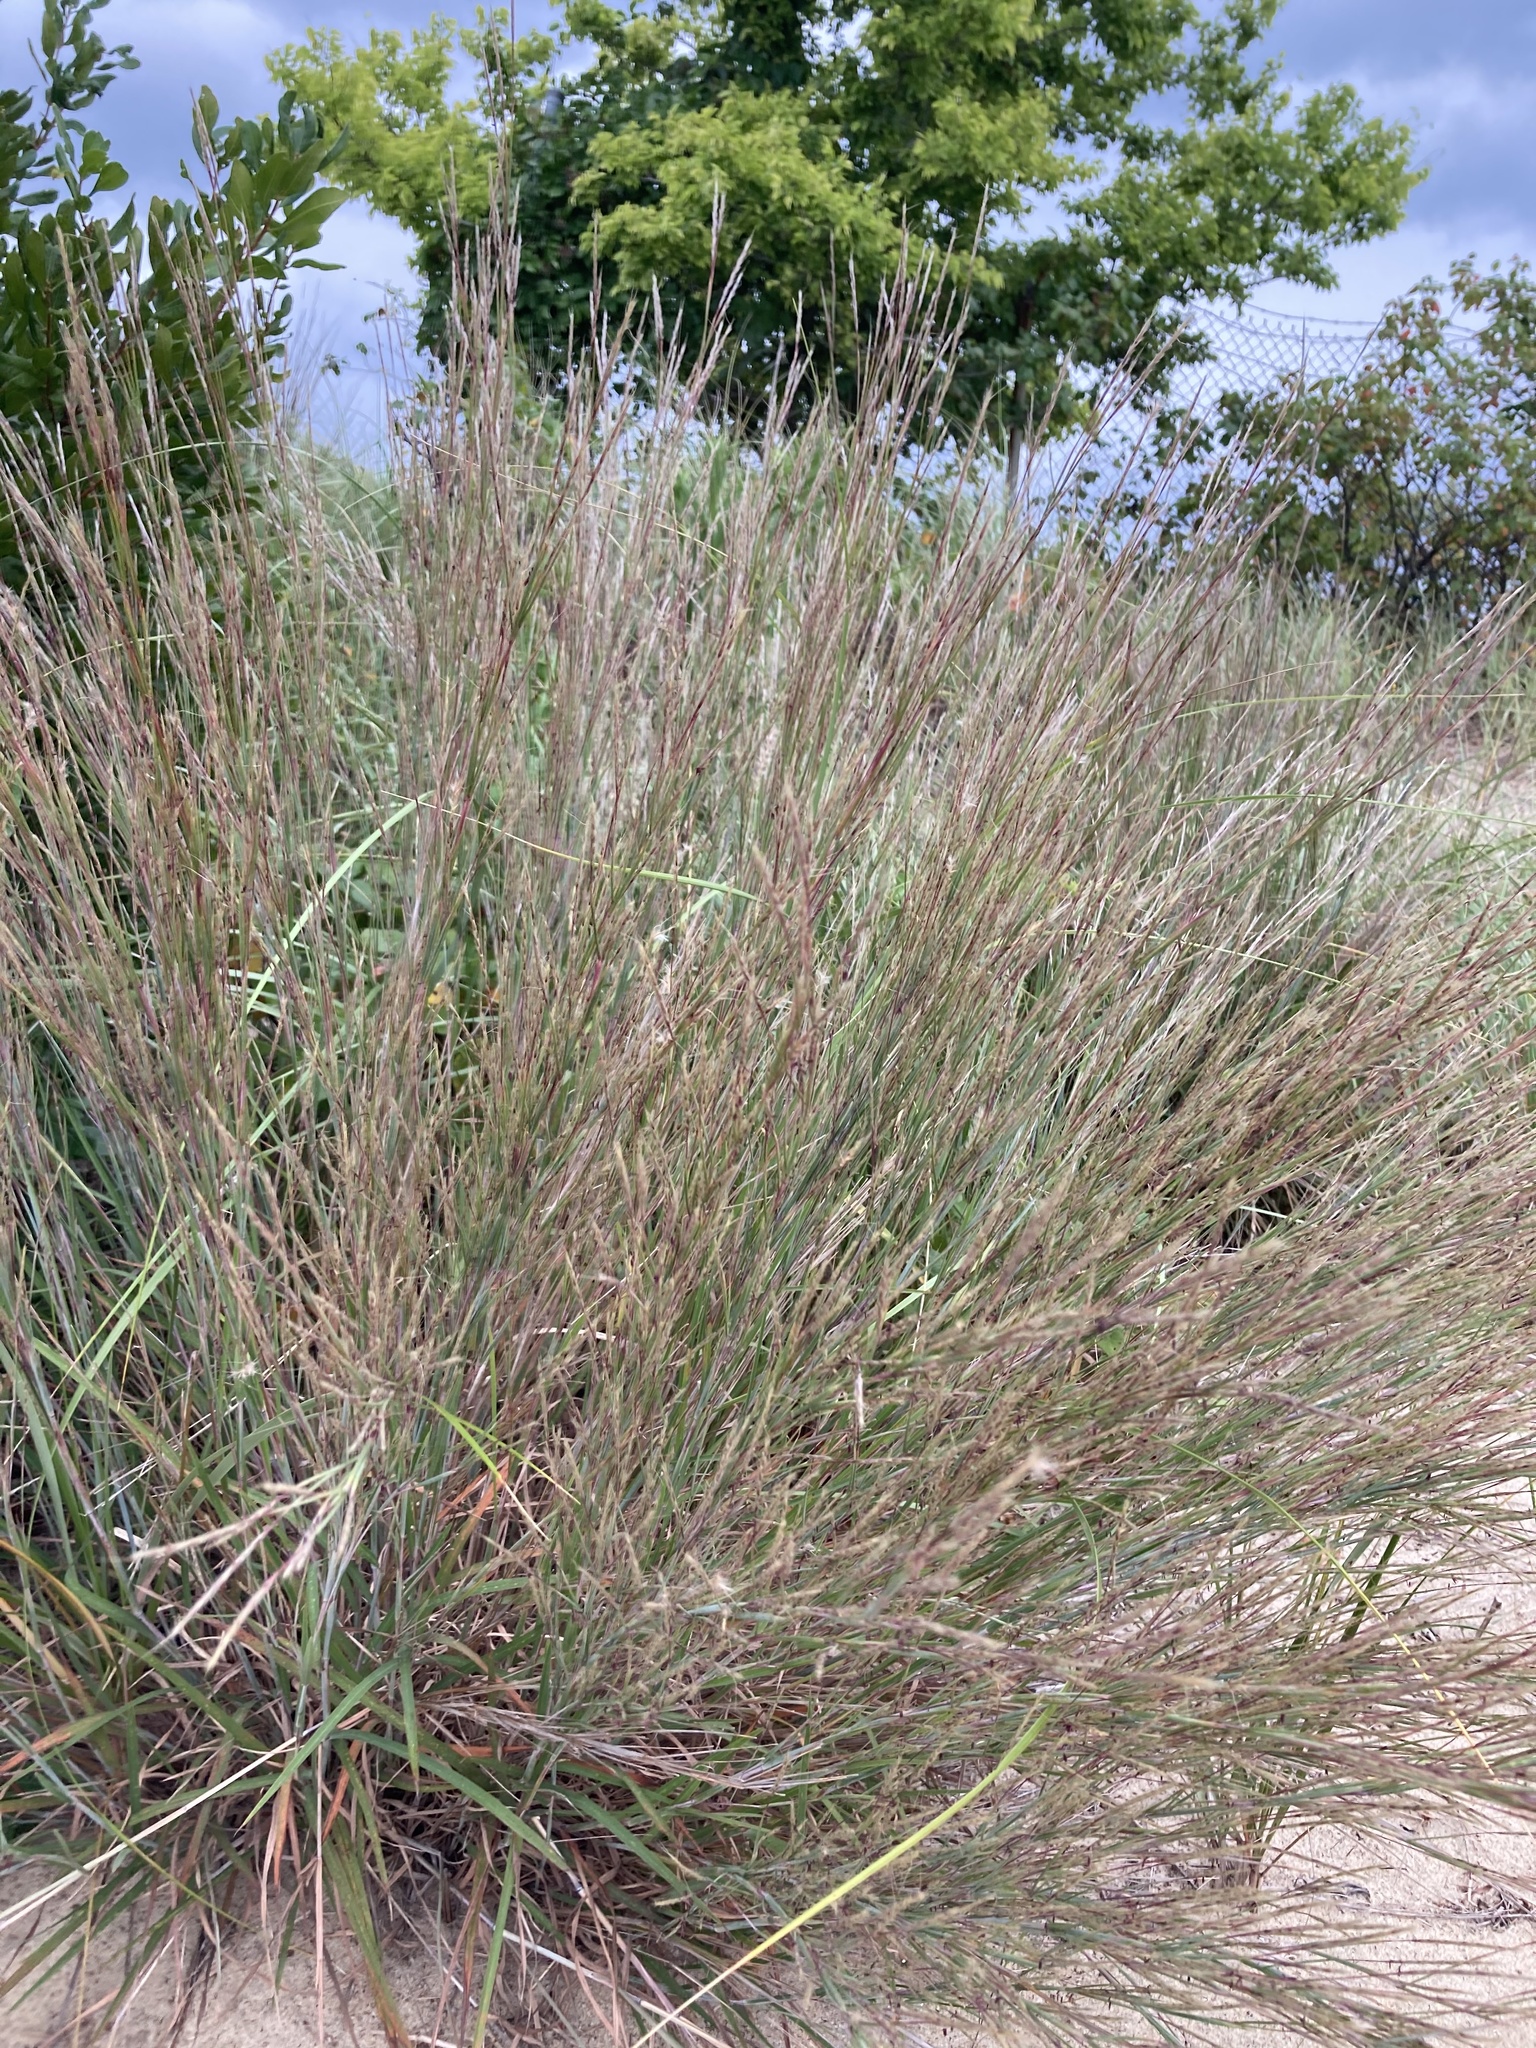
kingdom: Plantae
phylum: Tracheophyta
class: Liliopsida
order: Poales
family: Poaceae
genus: Schizachyrium
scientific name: Schizachyrium scoparium
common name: Little bluestem
